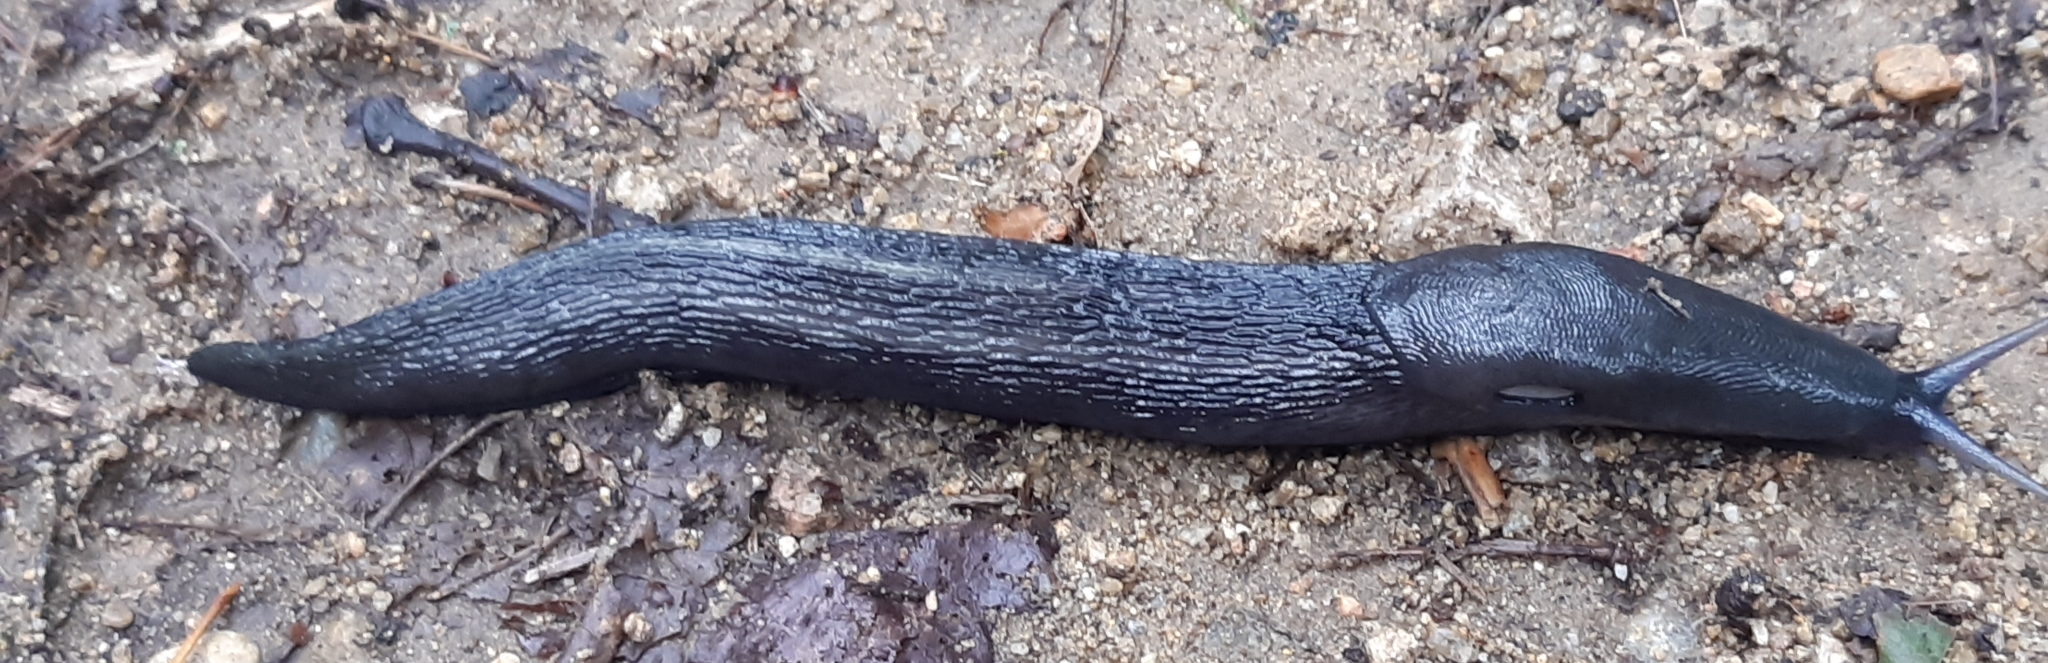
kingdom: Animalia
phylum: Mollusca
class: Gastropoda
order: Stylommatophora
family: Limacidae
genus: Limax
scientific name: Limax cinereoniger
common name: Ash-black slug
